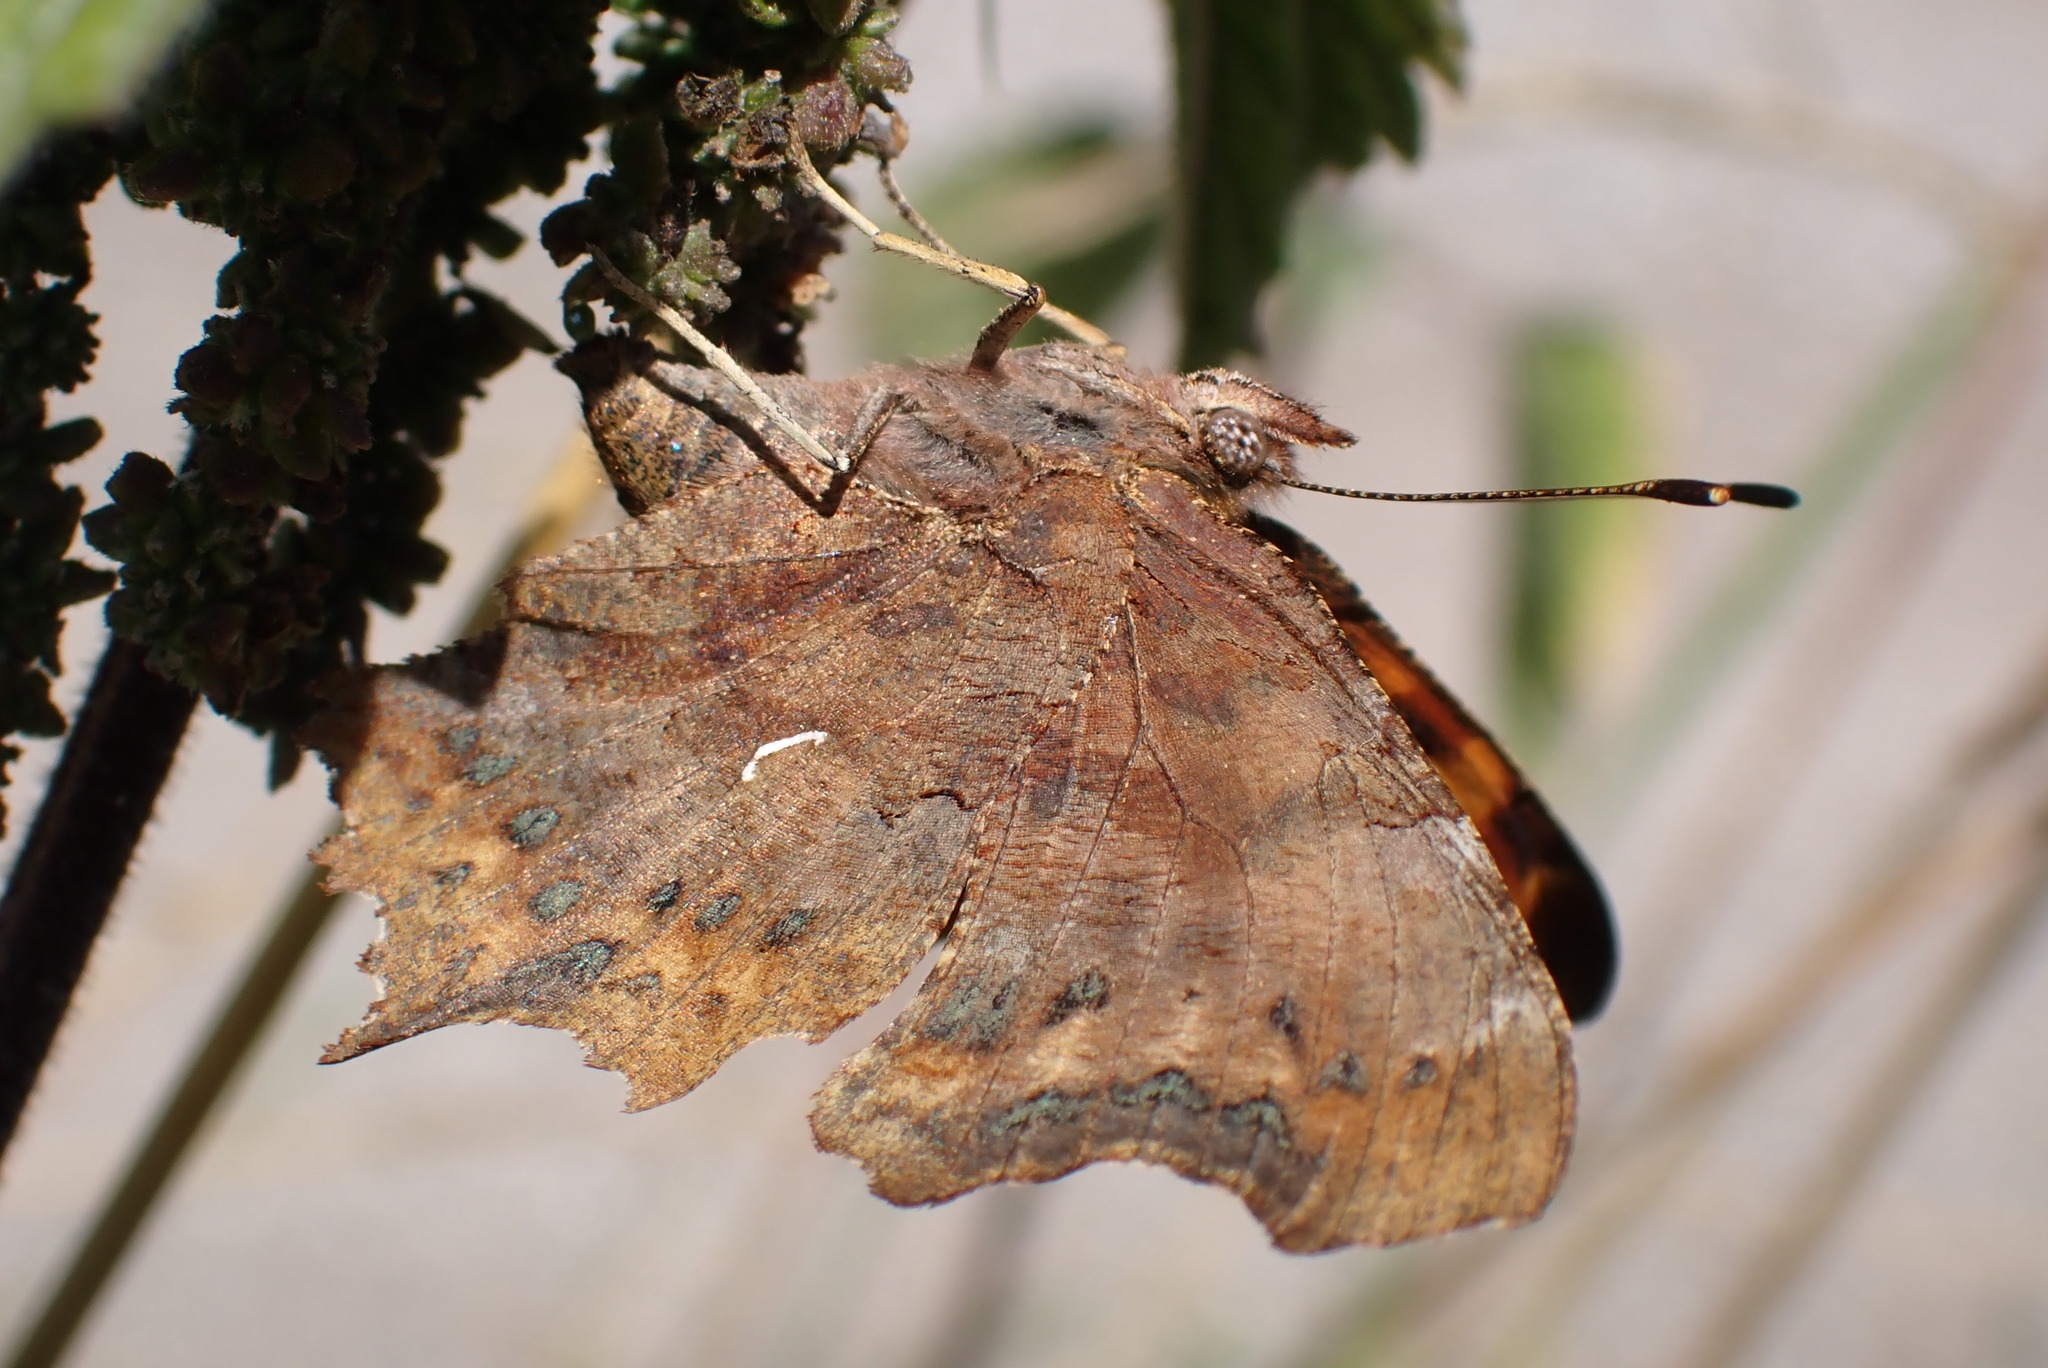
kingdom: Animalia
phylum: Arthropoda
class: Insecta
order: Lepidoptera
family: Nymphalidae
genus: Polygonia
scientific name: Polygonia c-album
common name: Comma
